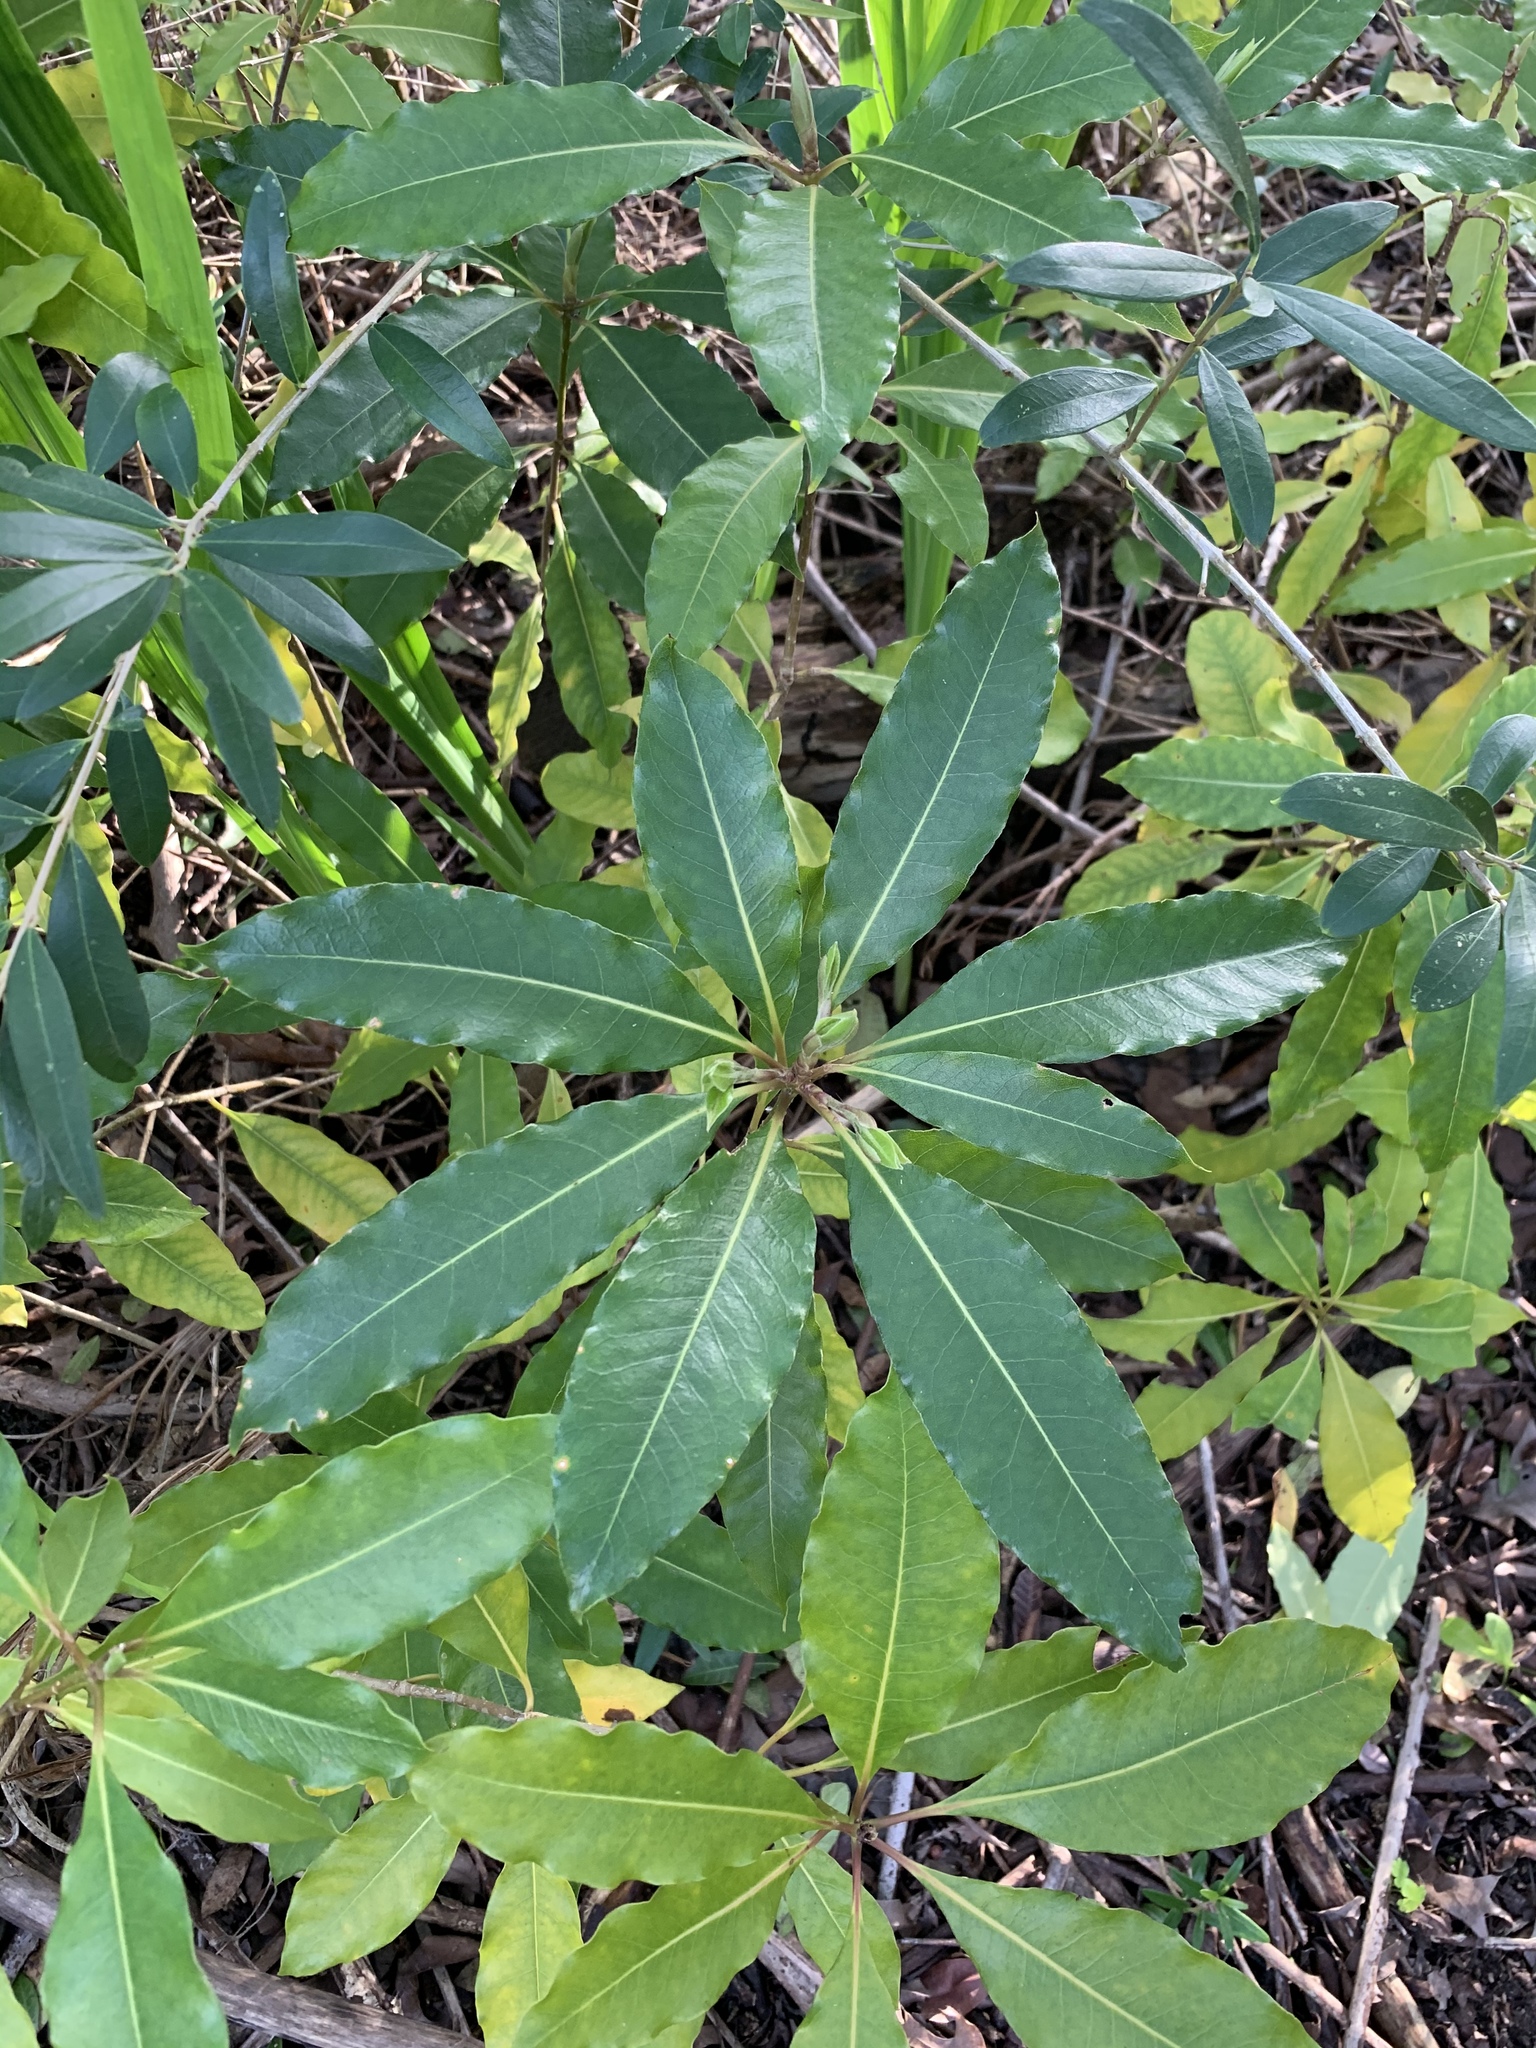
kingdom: Plantae
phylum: Tracheophyta
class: Magnoliopsida
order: Apiales
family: Pittosporaceae
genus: Pittosporum
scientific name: Pittosporum undulatum
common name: Australian cheesewood
